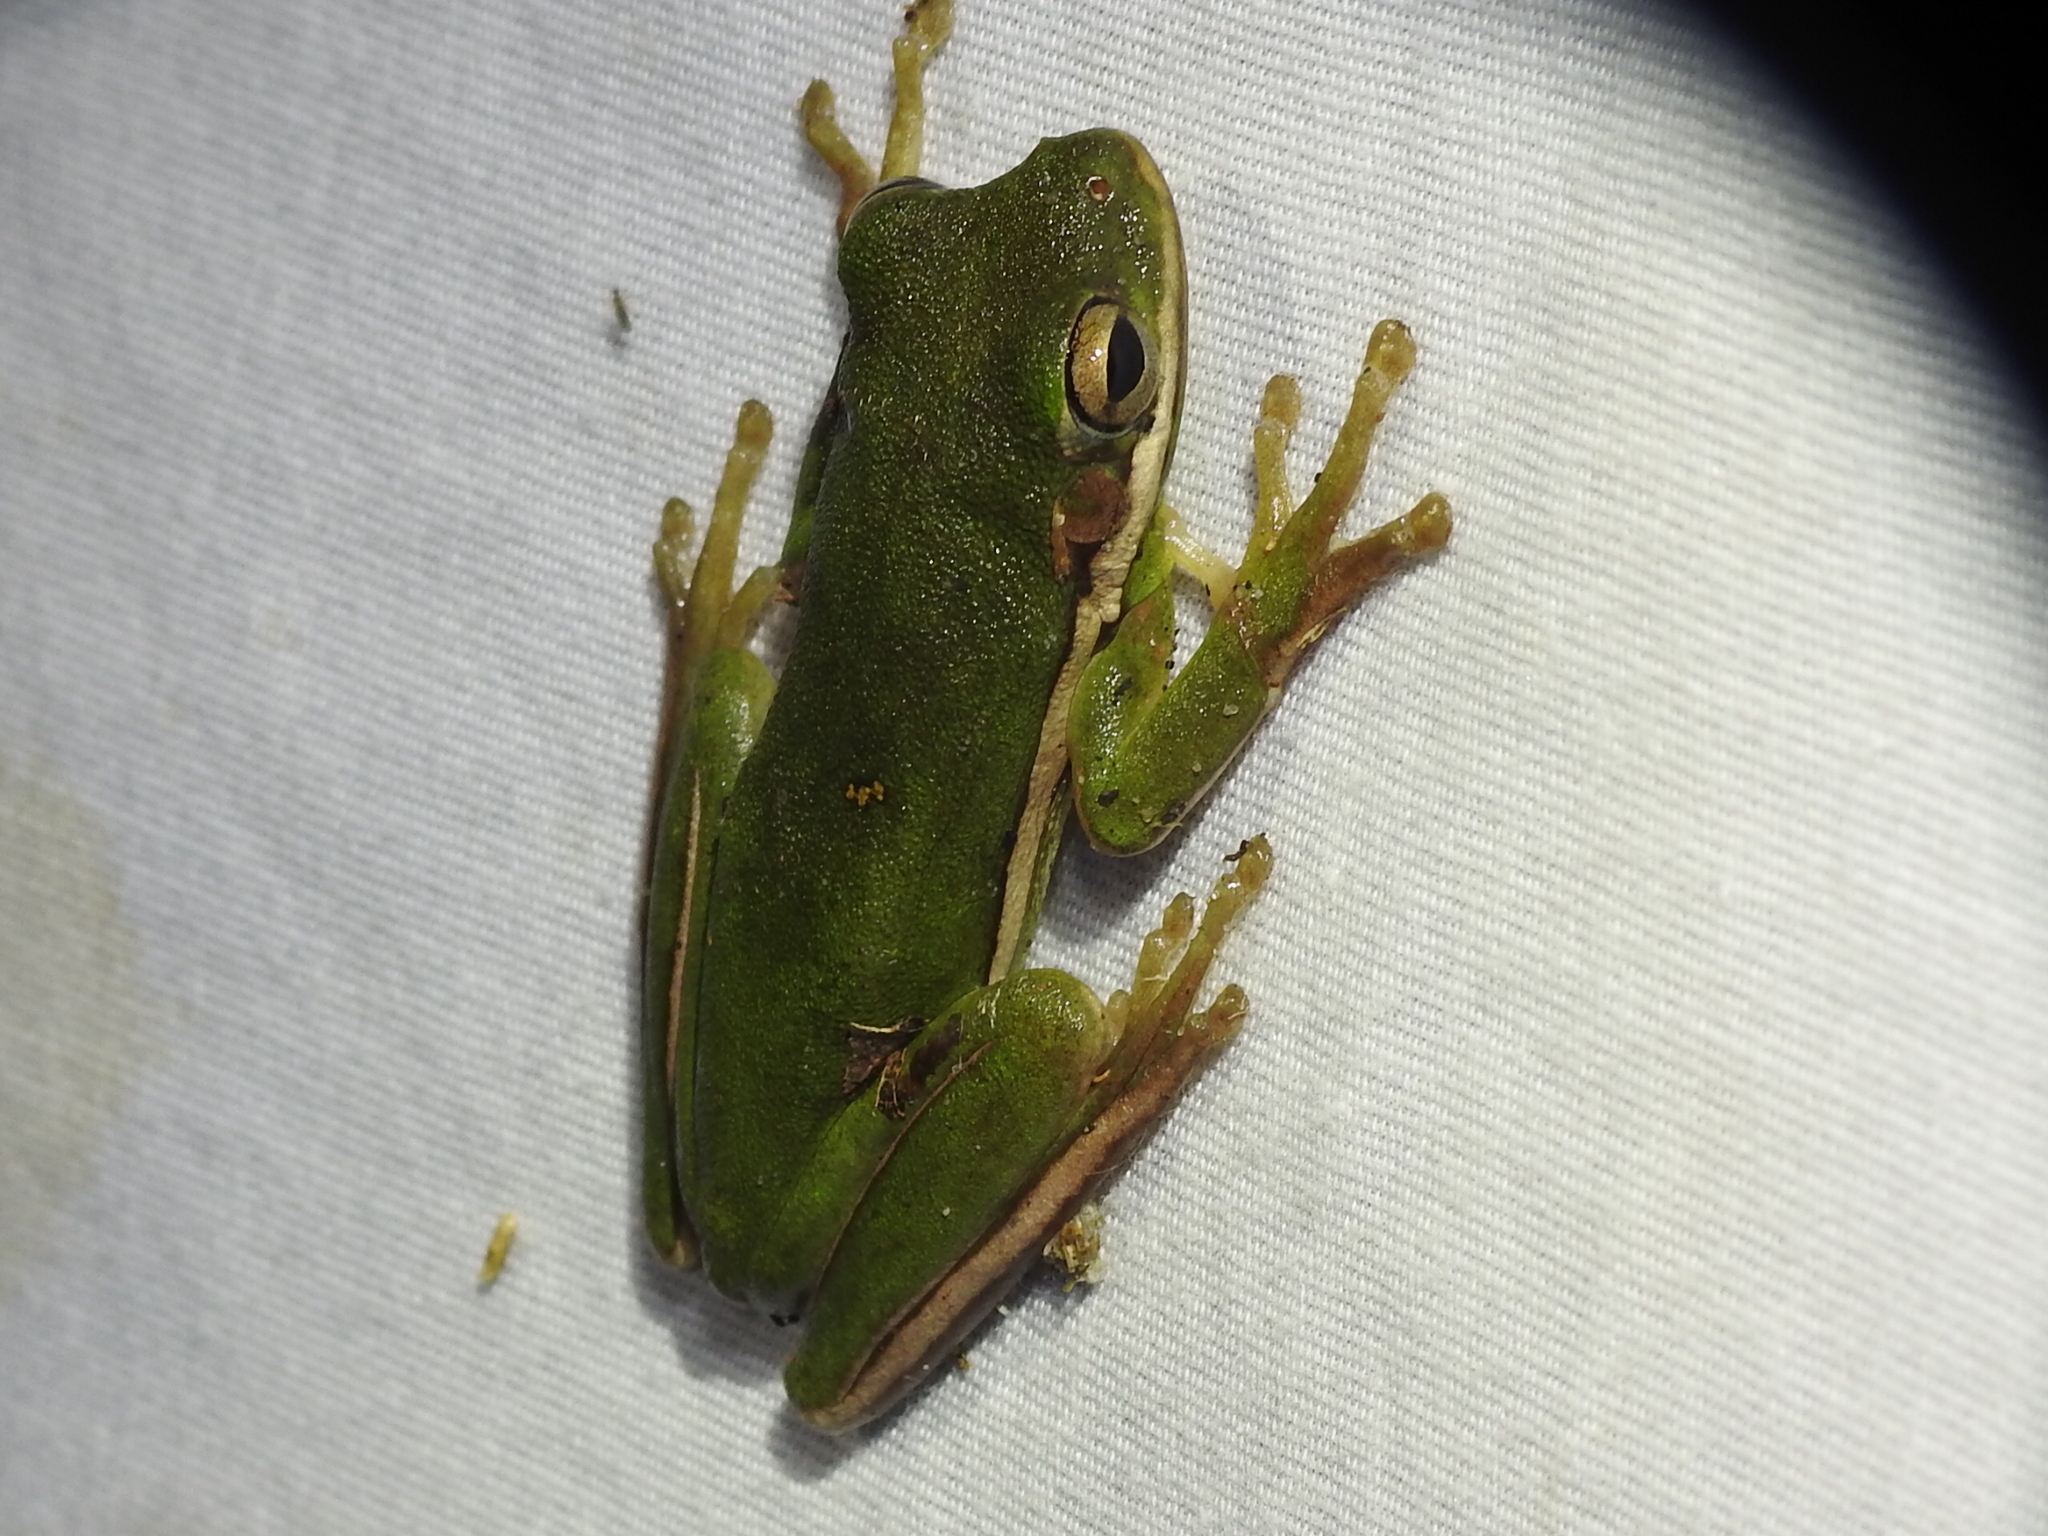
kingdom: Animalia
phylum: Chordata
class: Amphibia
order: Anura
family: Hylidae
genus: Dryophytes
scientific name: Dryophytes cinereus
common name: Green treefrog
